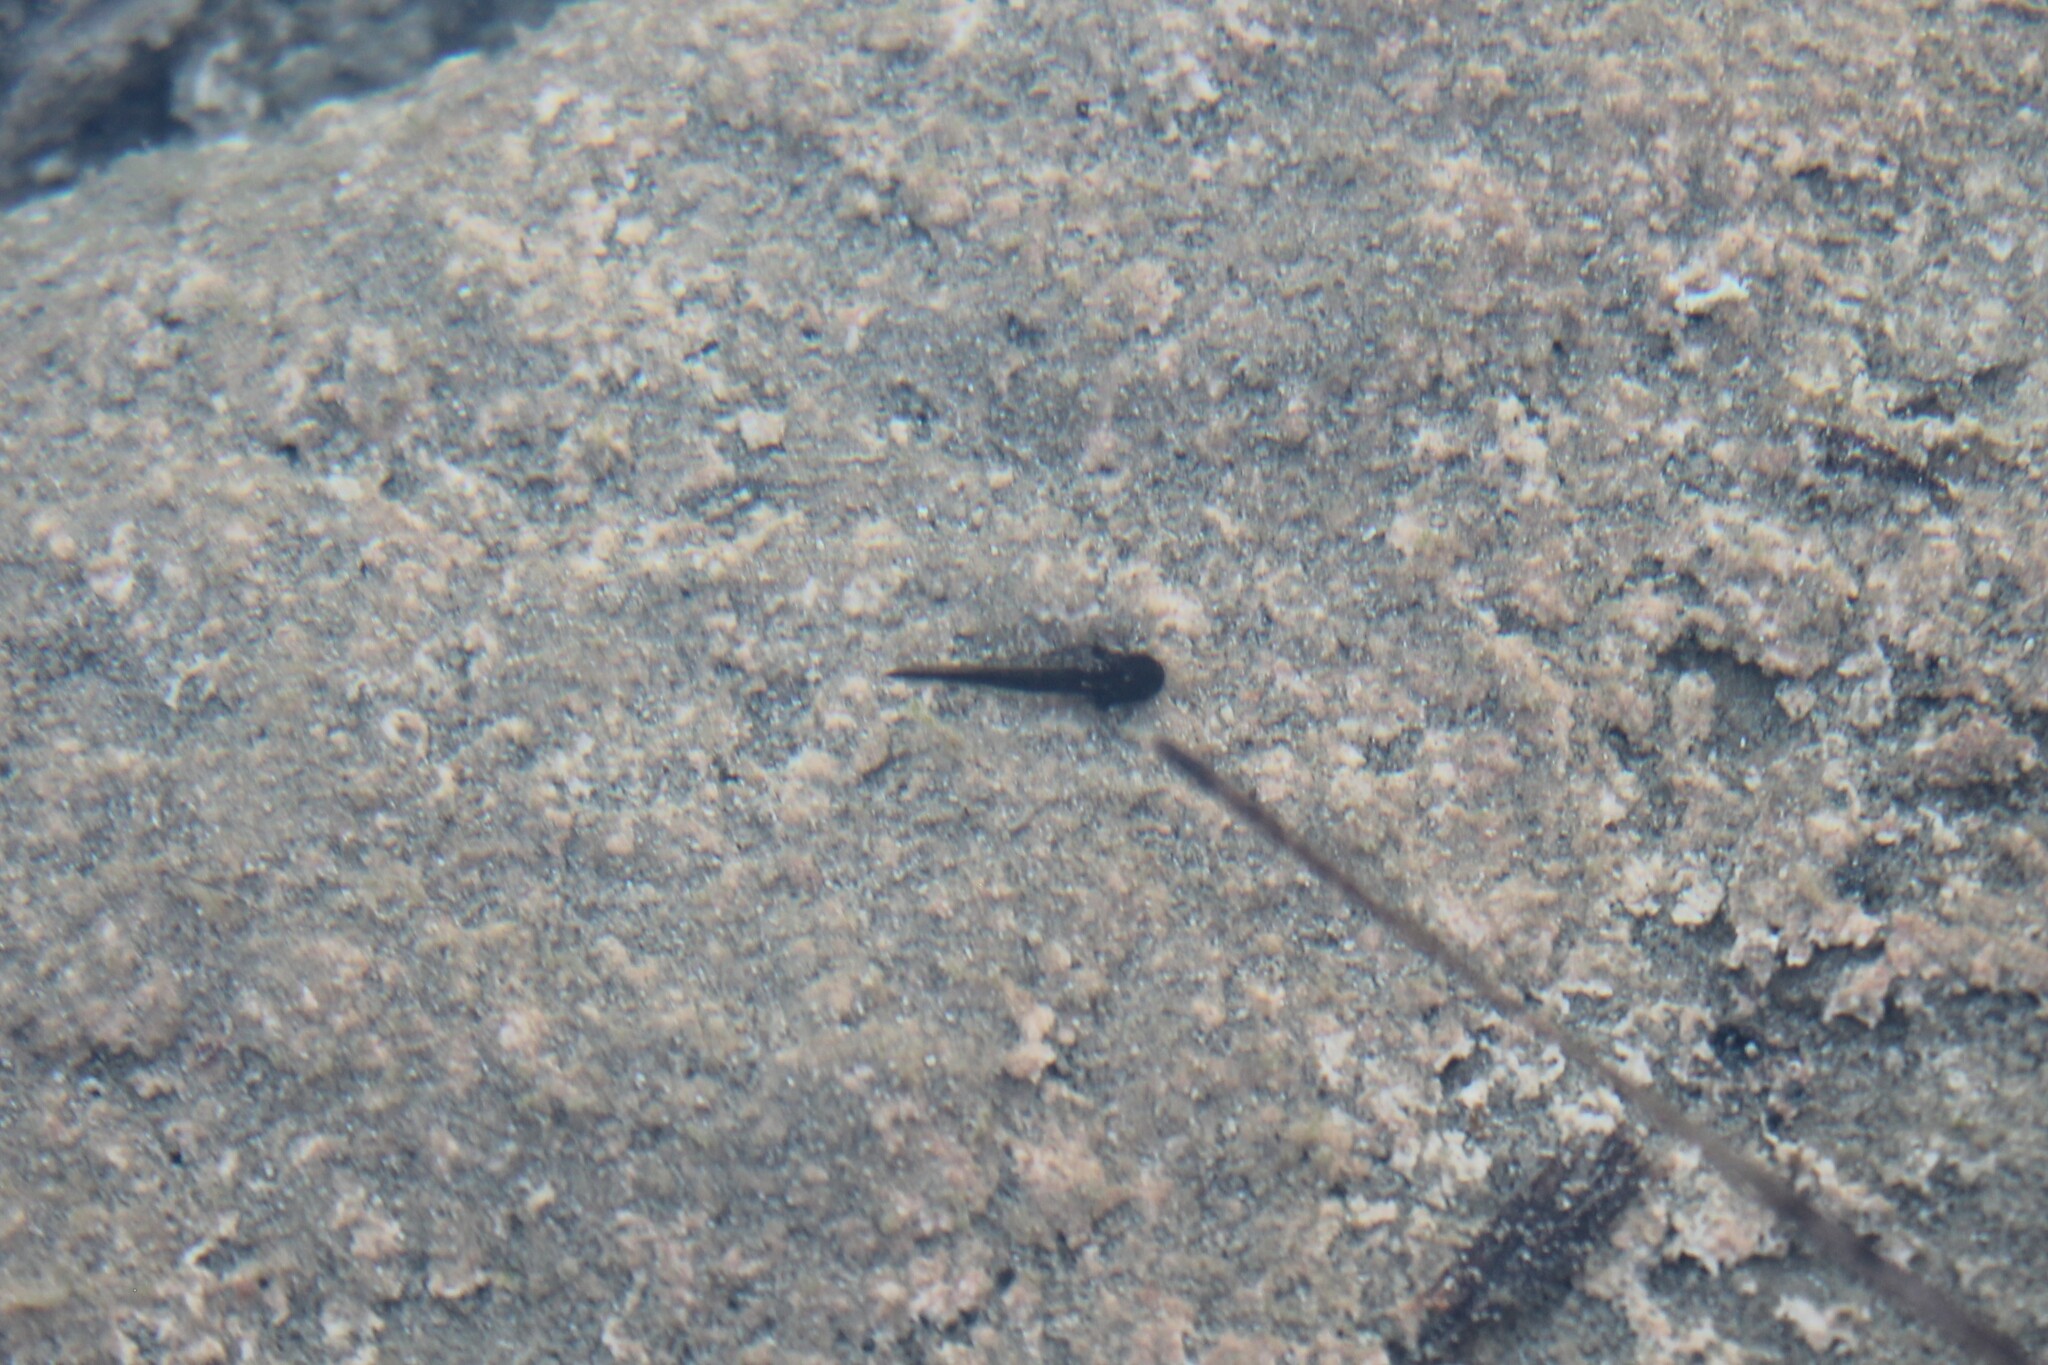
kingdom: Animalia
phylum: Chordata
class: Amphibia
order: Caudata
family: Ambystomatidae
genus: Ambystoma
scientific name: Ambystoma barbouri
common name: Streamside salamander
